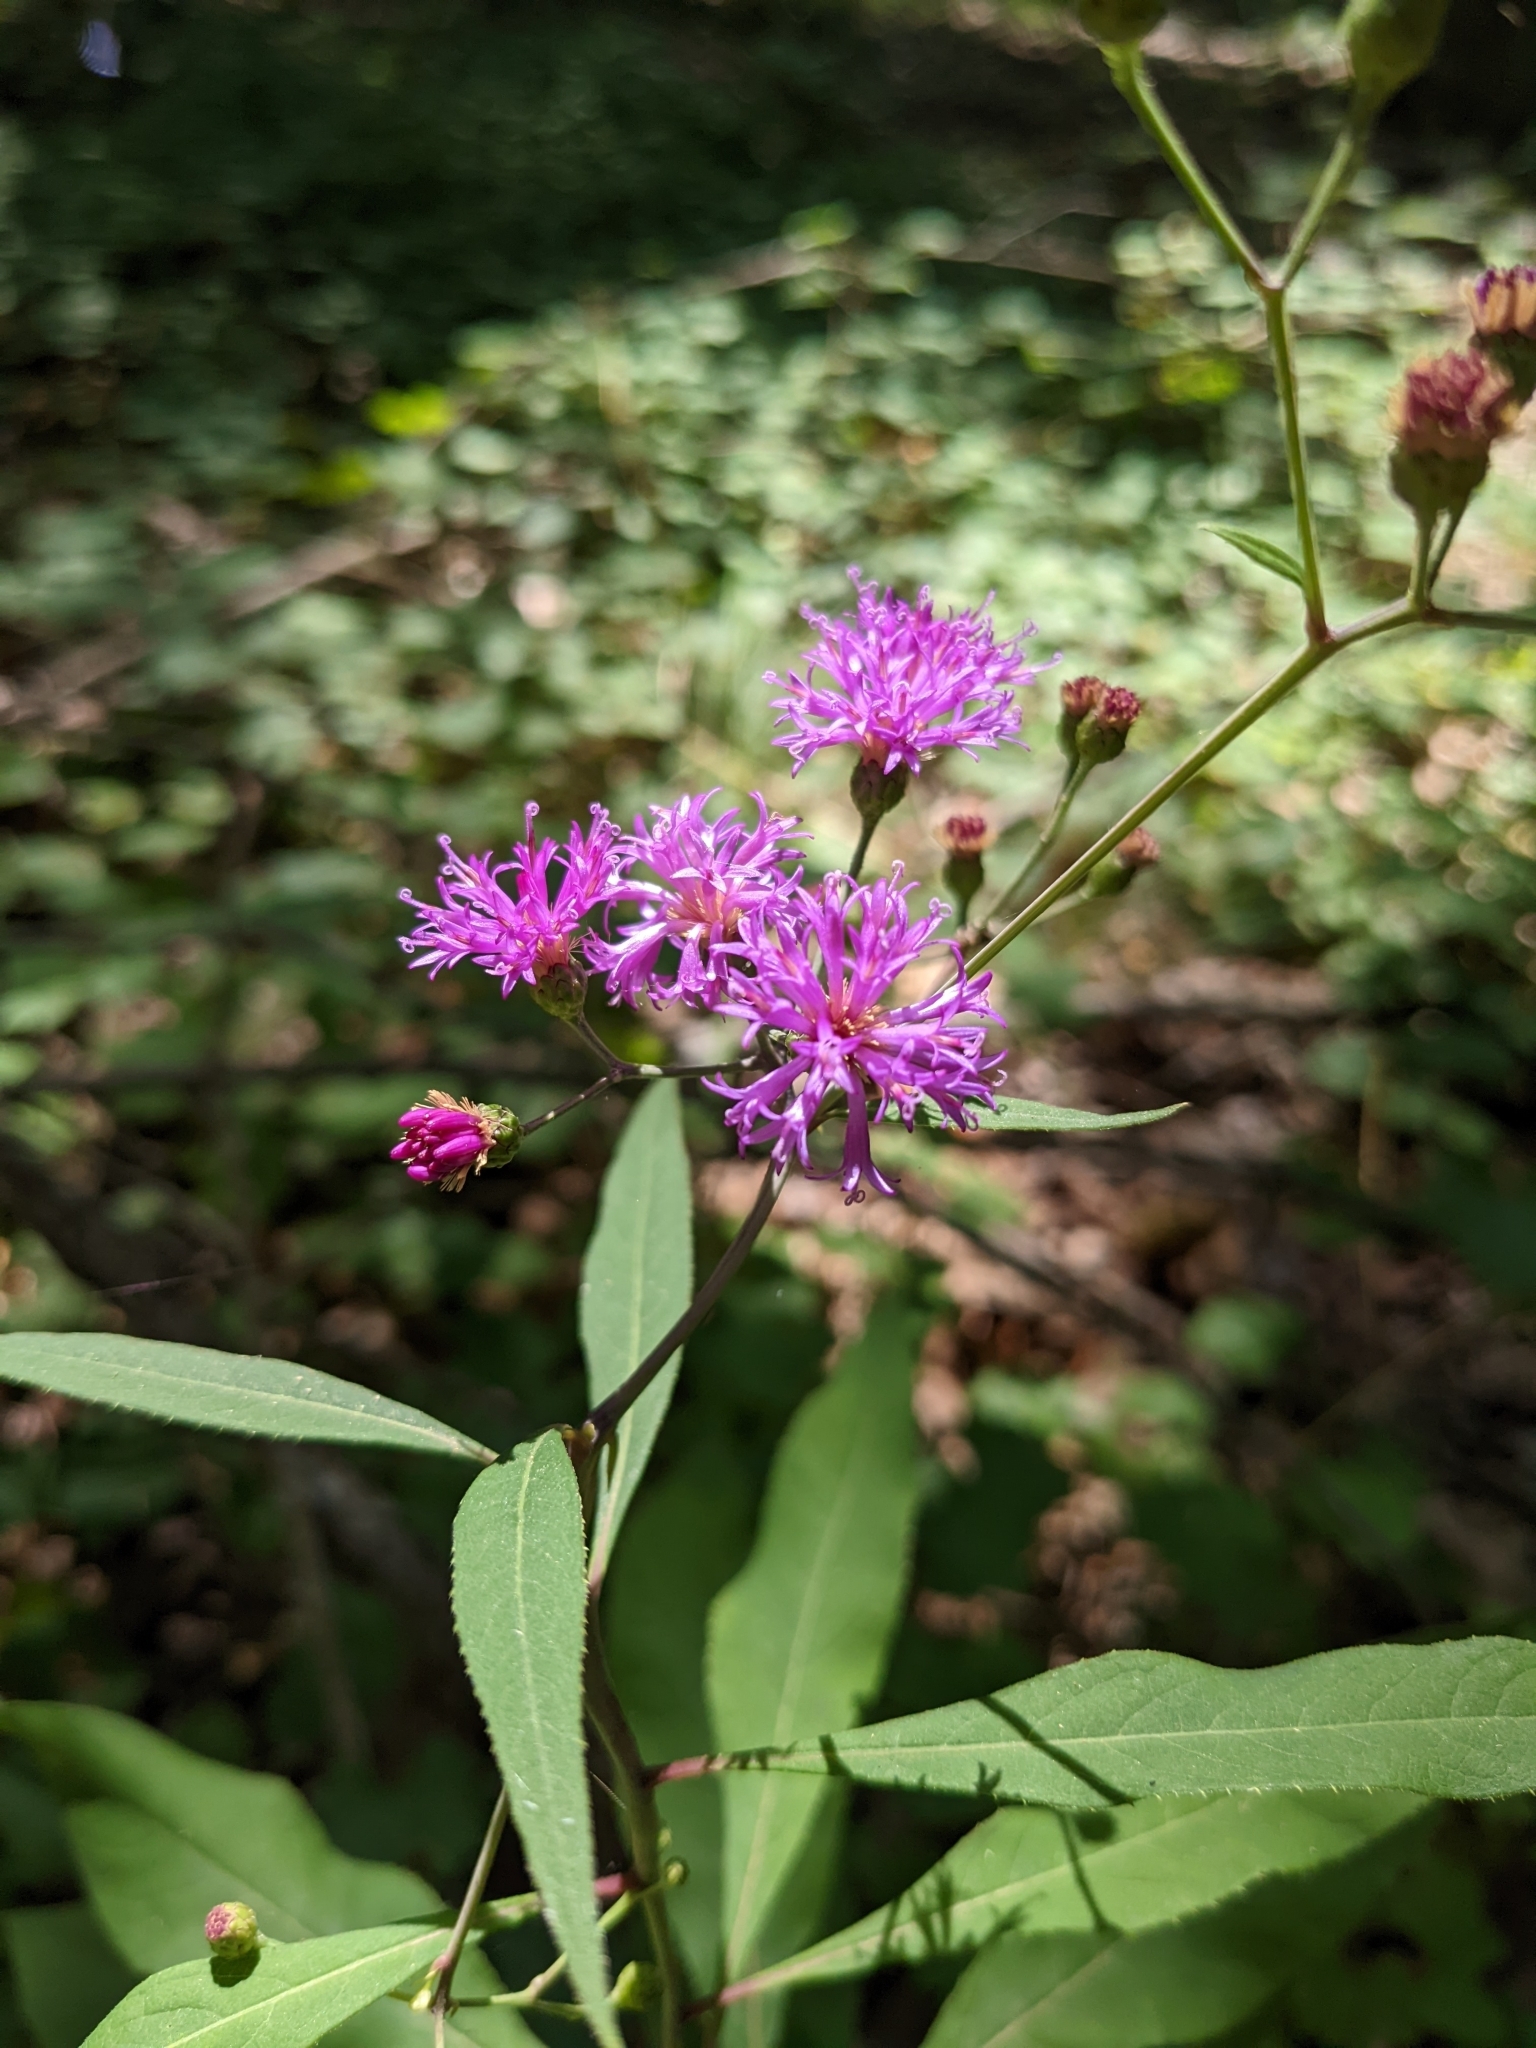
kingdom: Plantae
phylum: Tracheophyta
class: Magnoliopsida
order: Asterales
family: Asteraceae
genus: Vernonia
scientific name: Vernonia flaccidifolia
